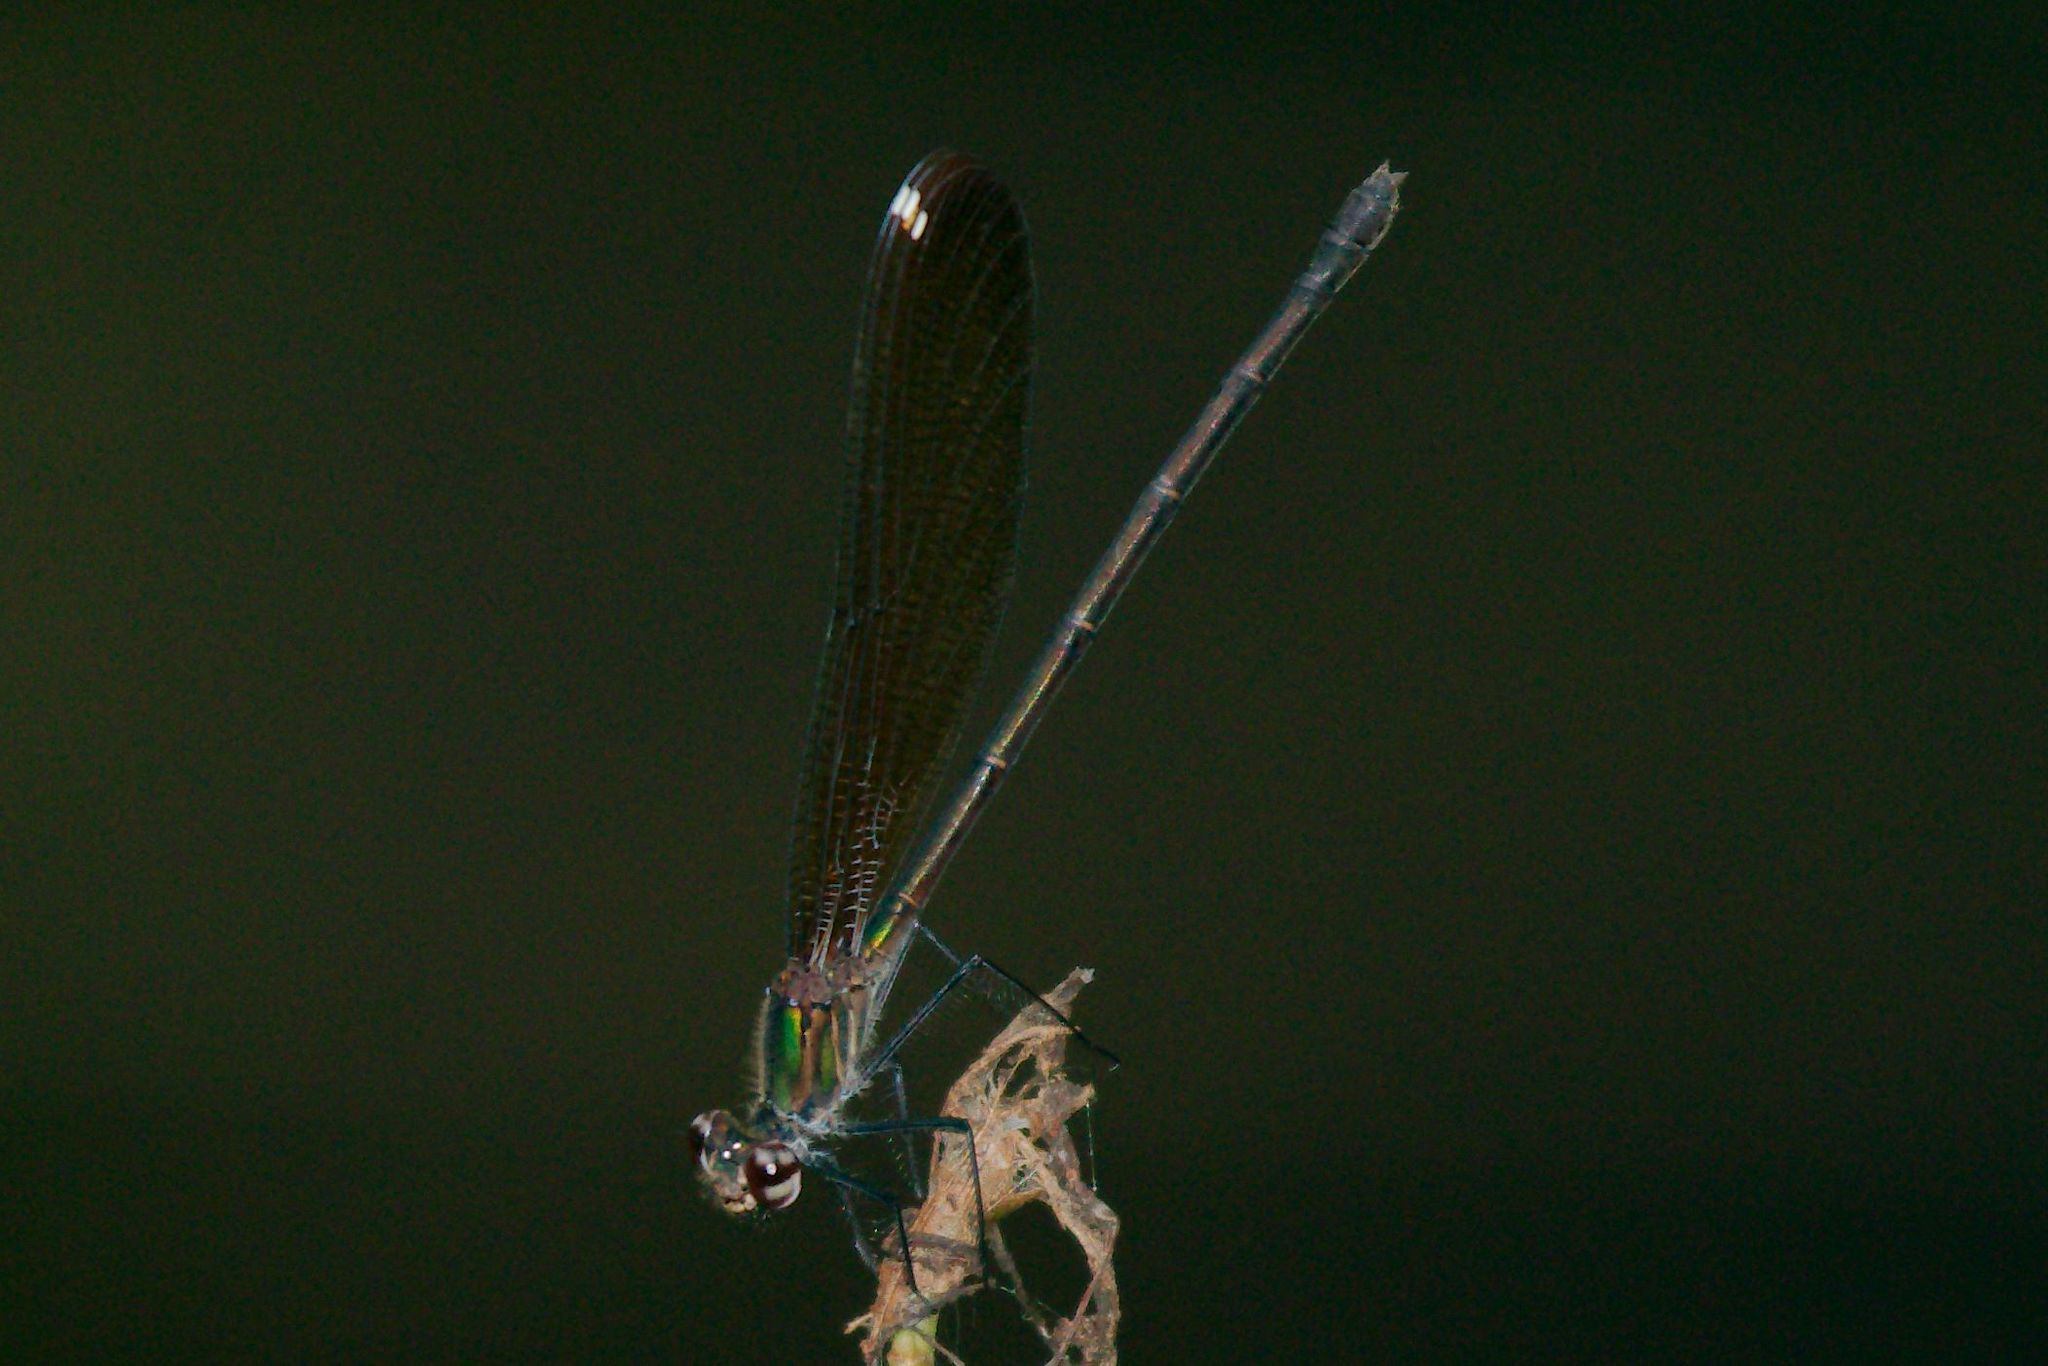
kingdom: Animalia
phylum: Arthropoda
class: Insecta
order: Odonata
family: Calopterygidae
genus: Hetaerina
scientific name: Hetaerina titia
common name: Smoky rubyspot
